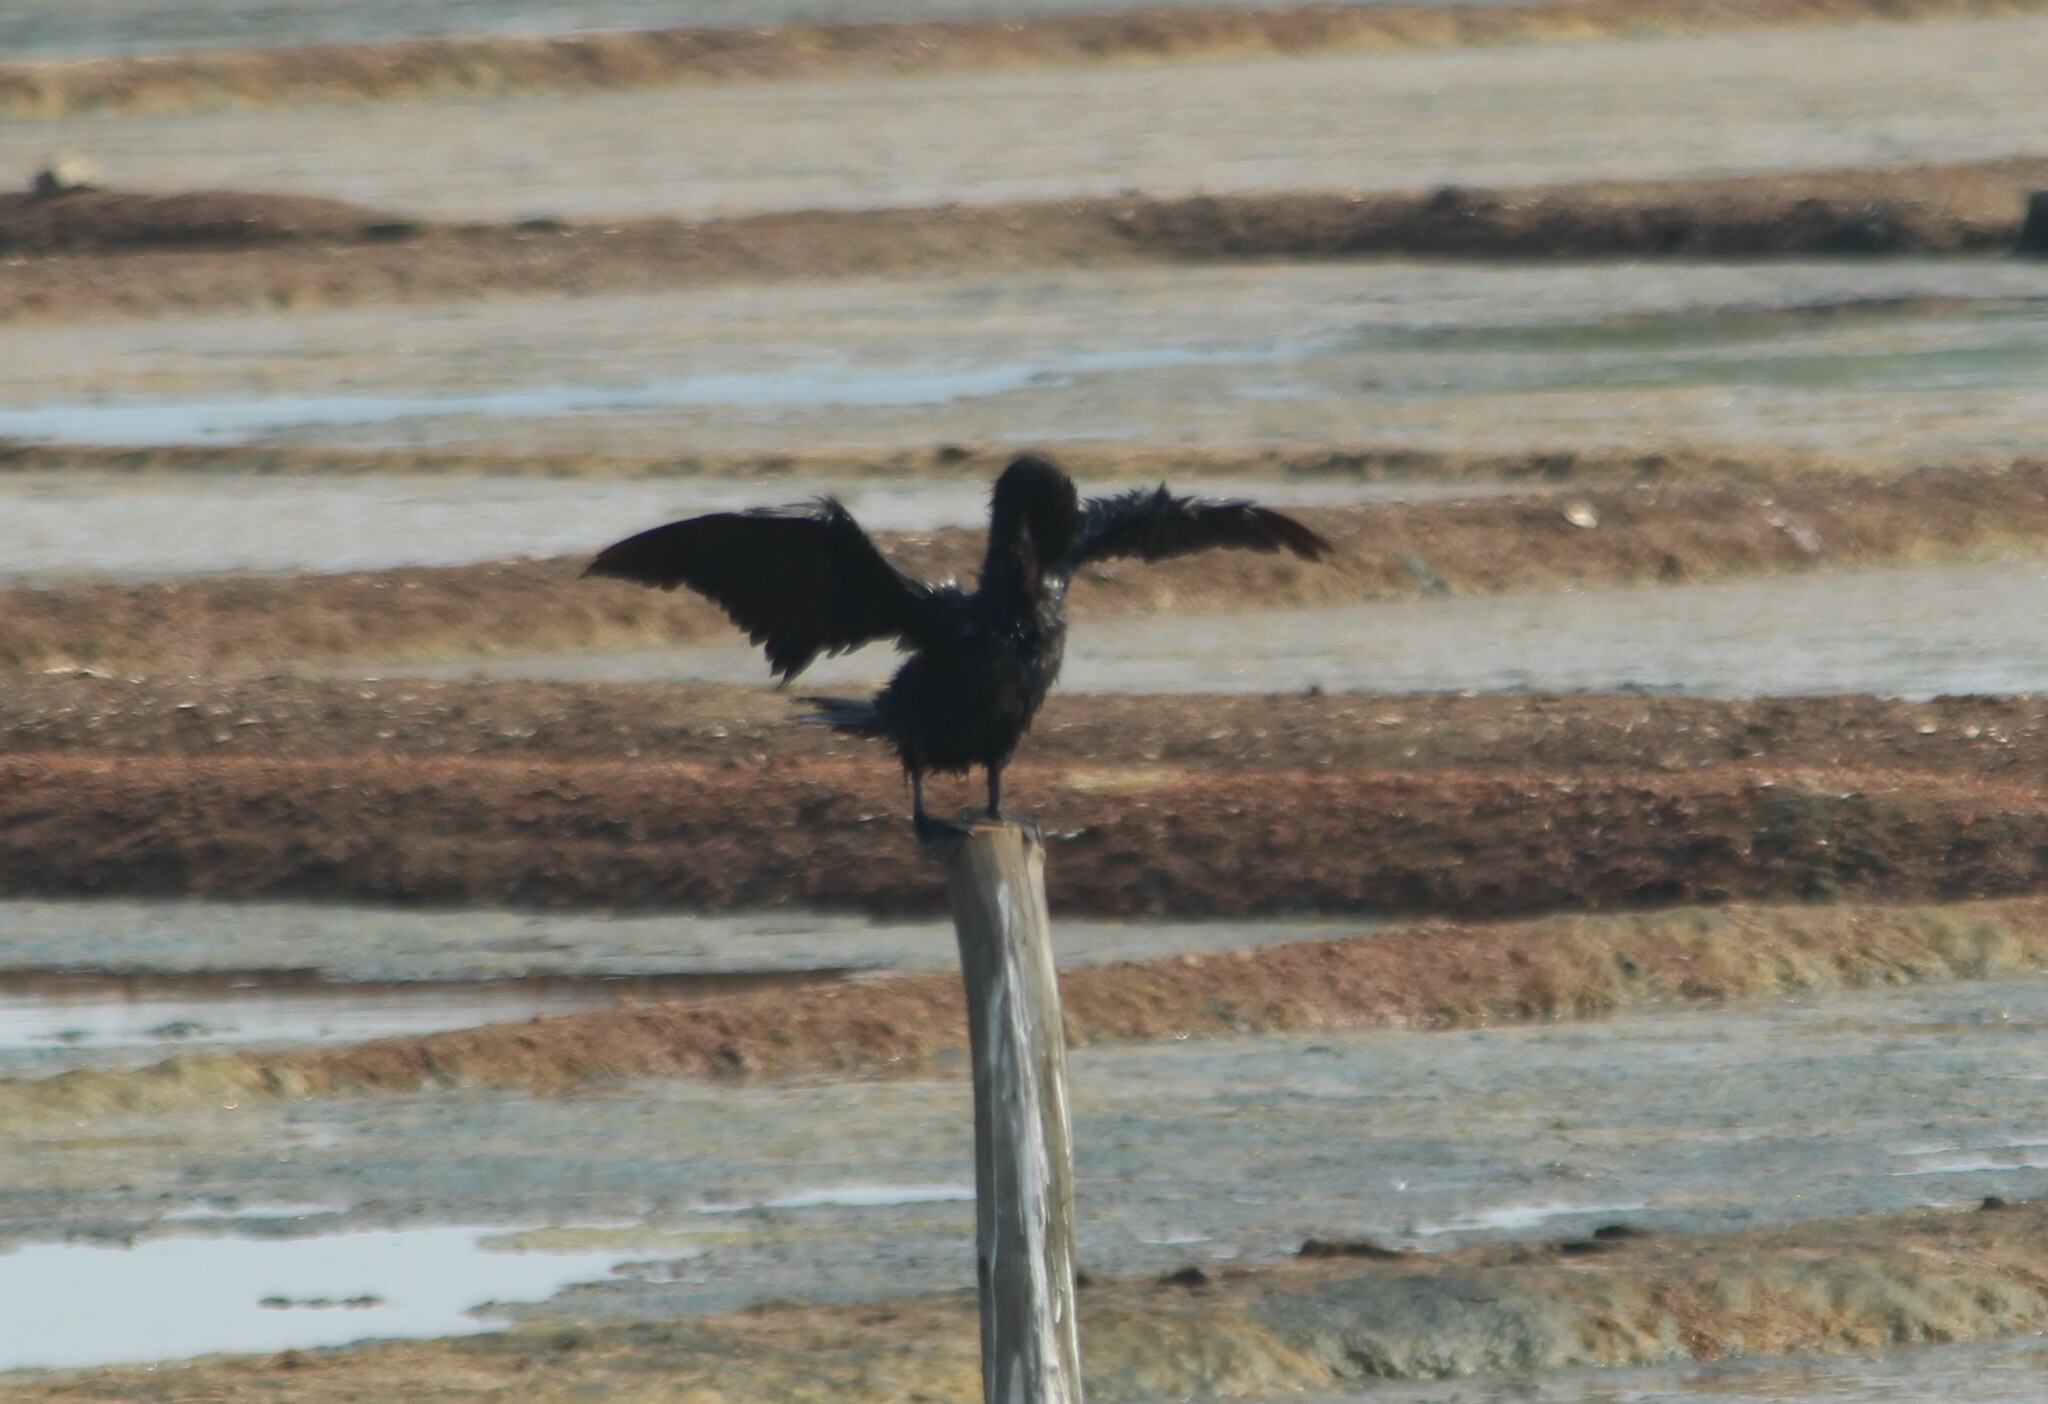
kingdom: Animalia
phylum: Chordata
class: Aves
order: Suliformes
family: Phalacrocoracidae
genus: Microcarbo
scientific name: Microcarbo niger
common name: Little cormorant
